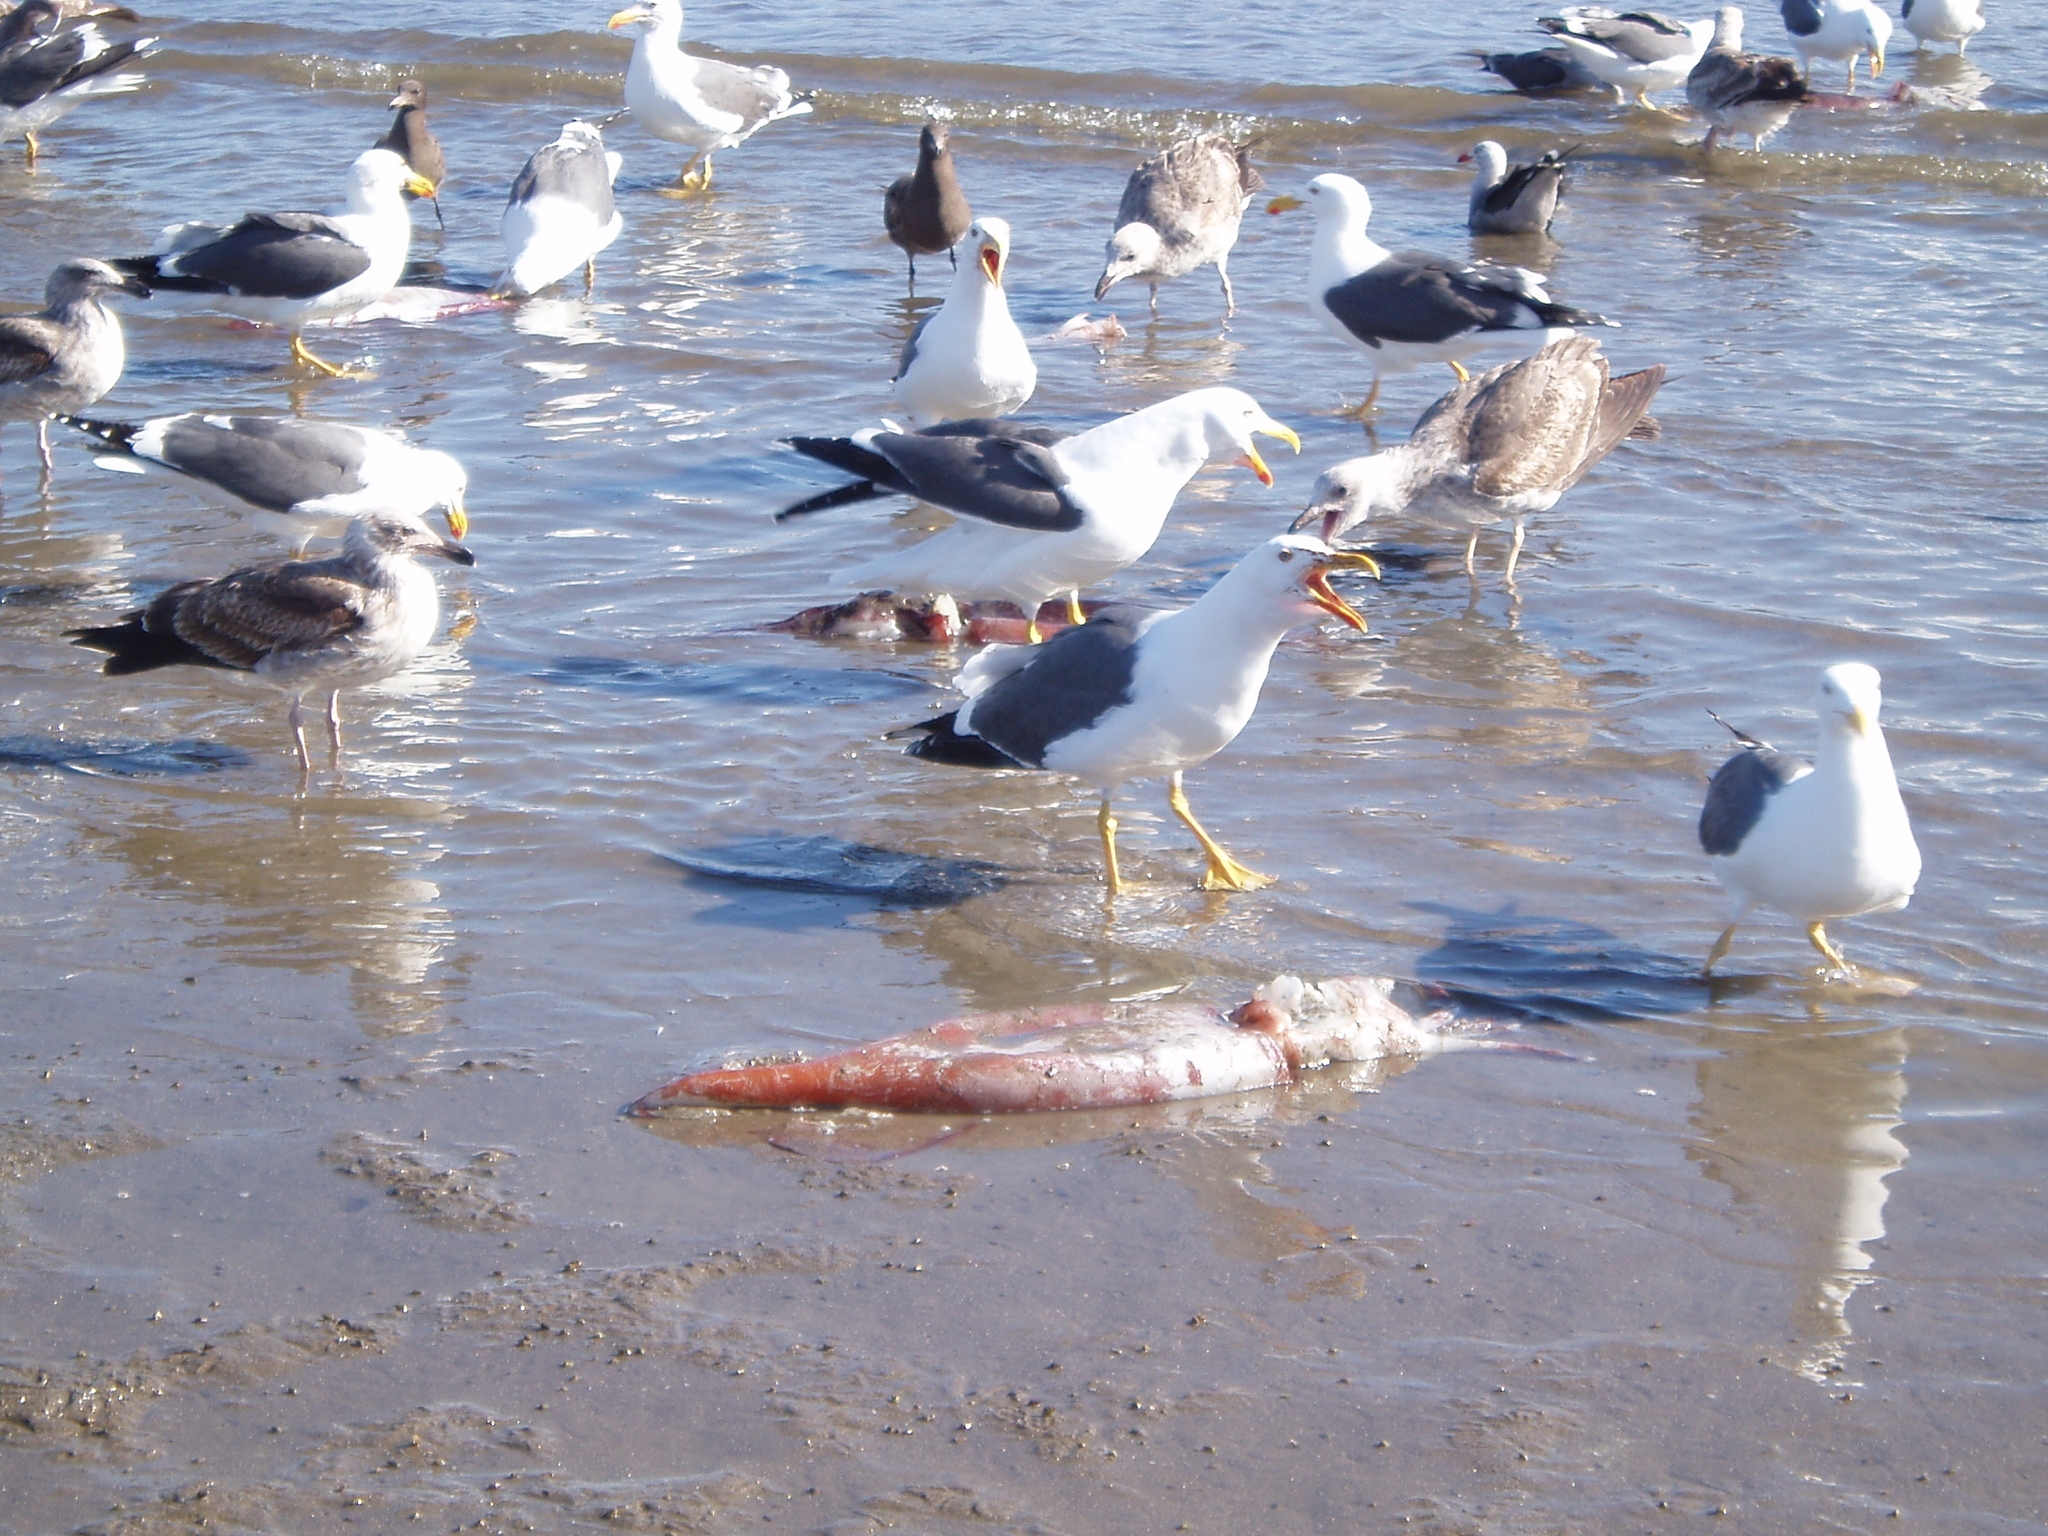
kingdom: Animalia
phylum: Chordata
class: Aves
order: Charadriiformes
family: Laridae
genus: Larus
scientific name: Larus livens
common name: Yellow-footed gull
